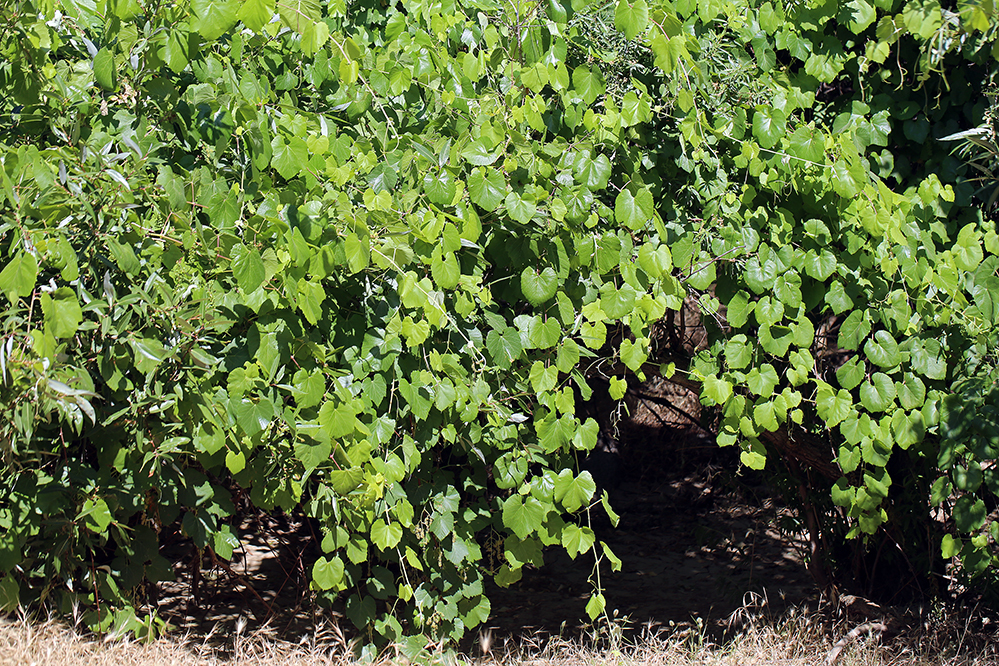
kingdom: Plantae
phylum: Tracheophyta
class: Magnoliopsida
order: Vitales
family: Vitaceae
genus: Vitis
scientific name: Vitis californica
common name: California wild grape
